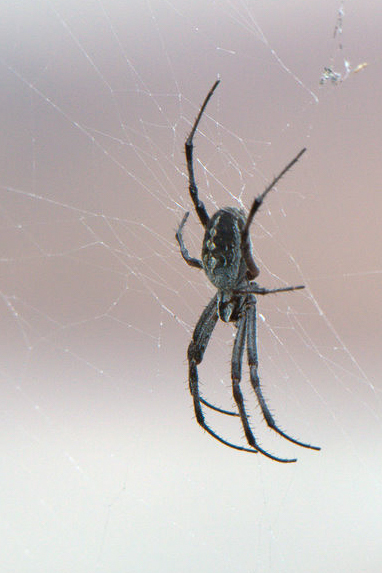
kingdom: Animalia
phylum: Arthropoda
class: Arachnida
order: Araneae
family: Araneidae
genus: Neoscona
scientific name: Neoscona oaxacensis
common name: Orb weavers
